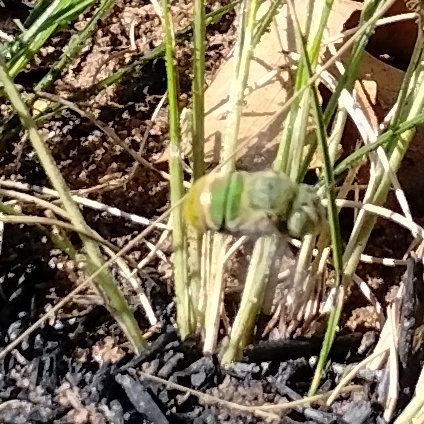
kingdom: Animalia
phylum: Arthropoda
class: Insecta
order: Hymenoptera
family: Apidae
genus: Amegilla
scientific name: Amegilla aeruginosa
